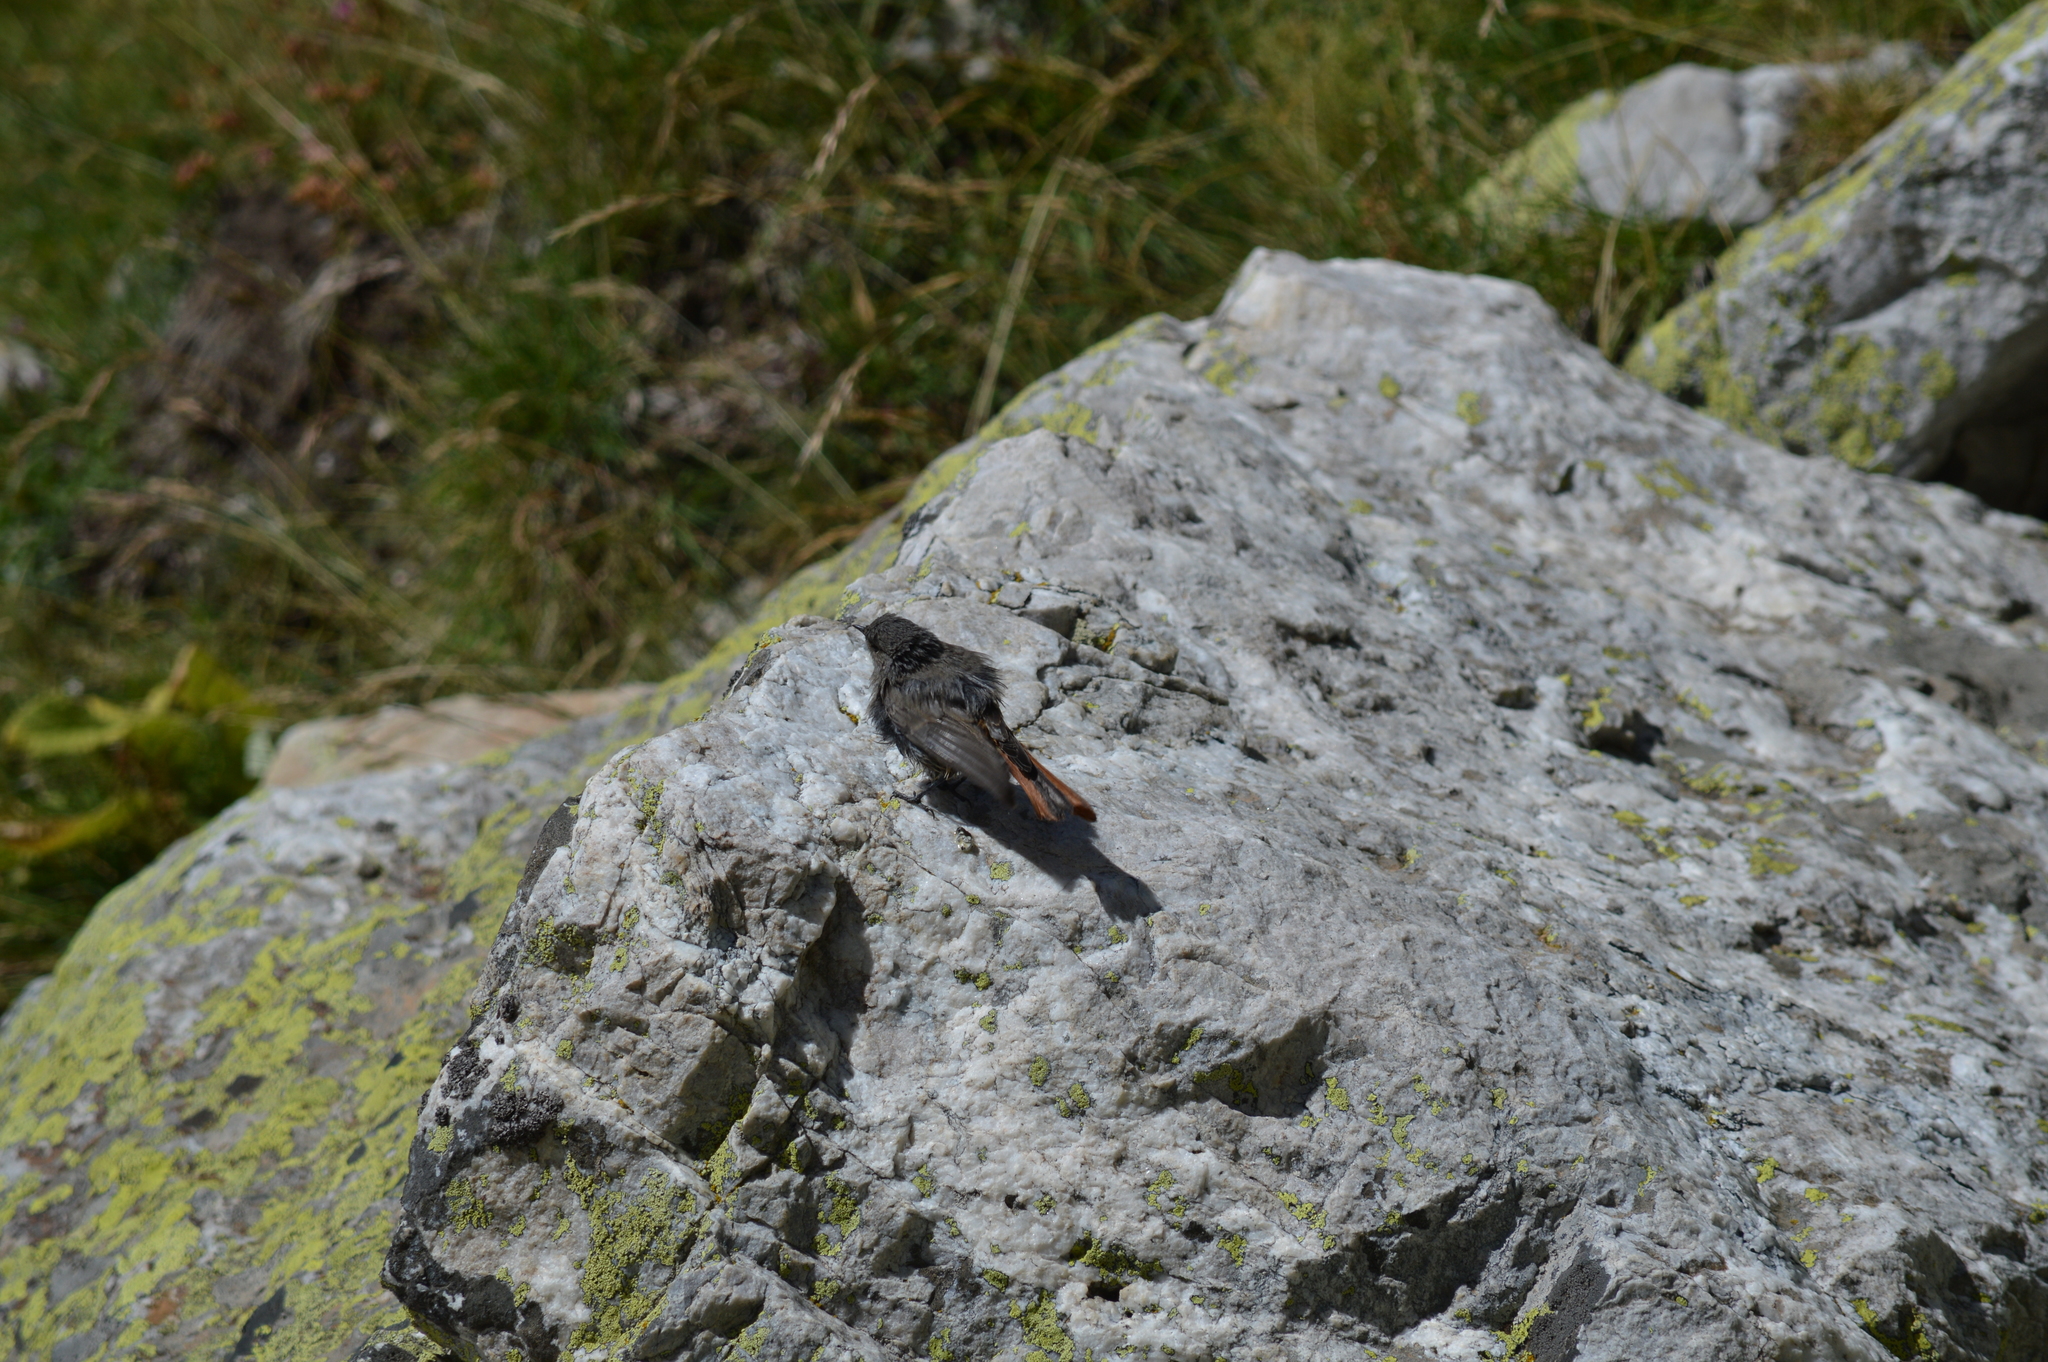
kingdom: Animalia
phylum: Chordata
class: Aves
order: Passeriformes
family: Muscicapidae
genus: Phoenicurus
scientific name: Phoenicurus ochruros
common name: Black redstart
